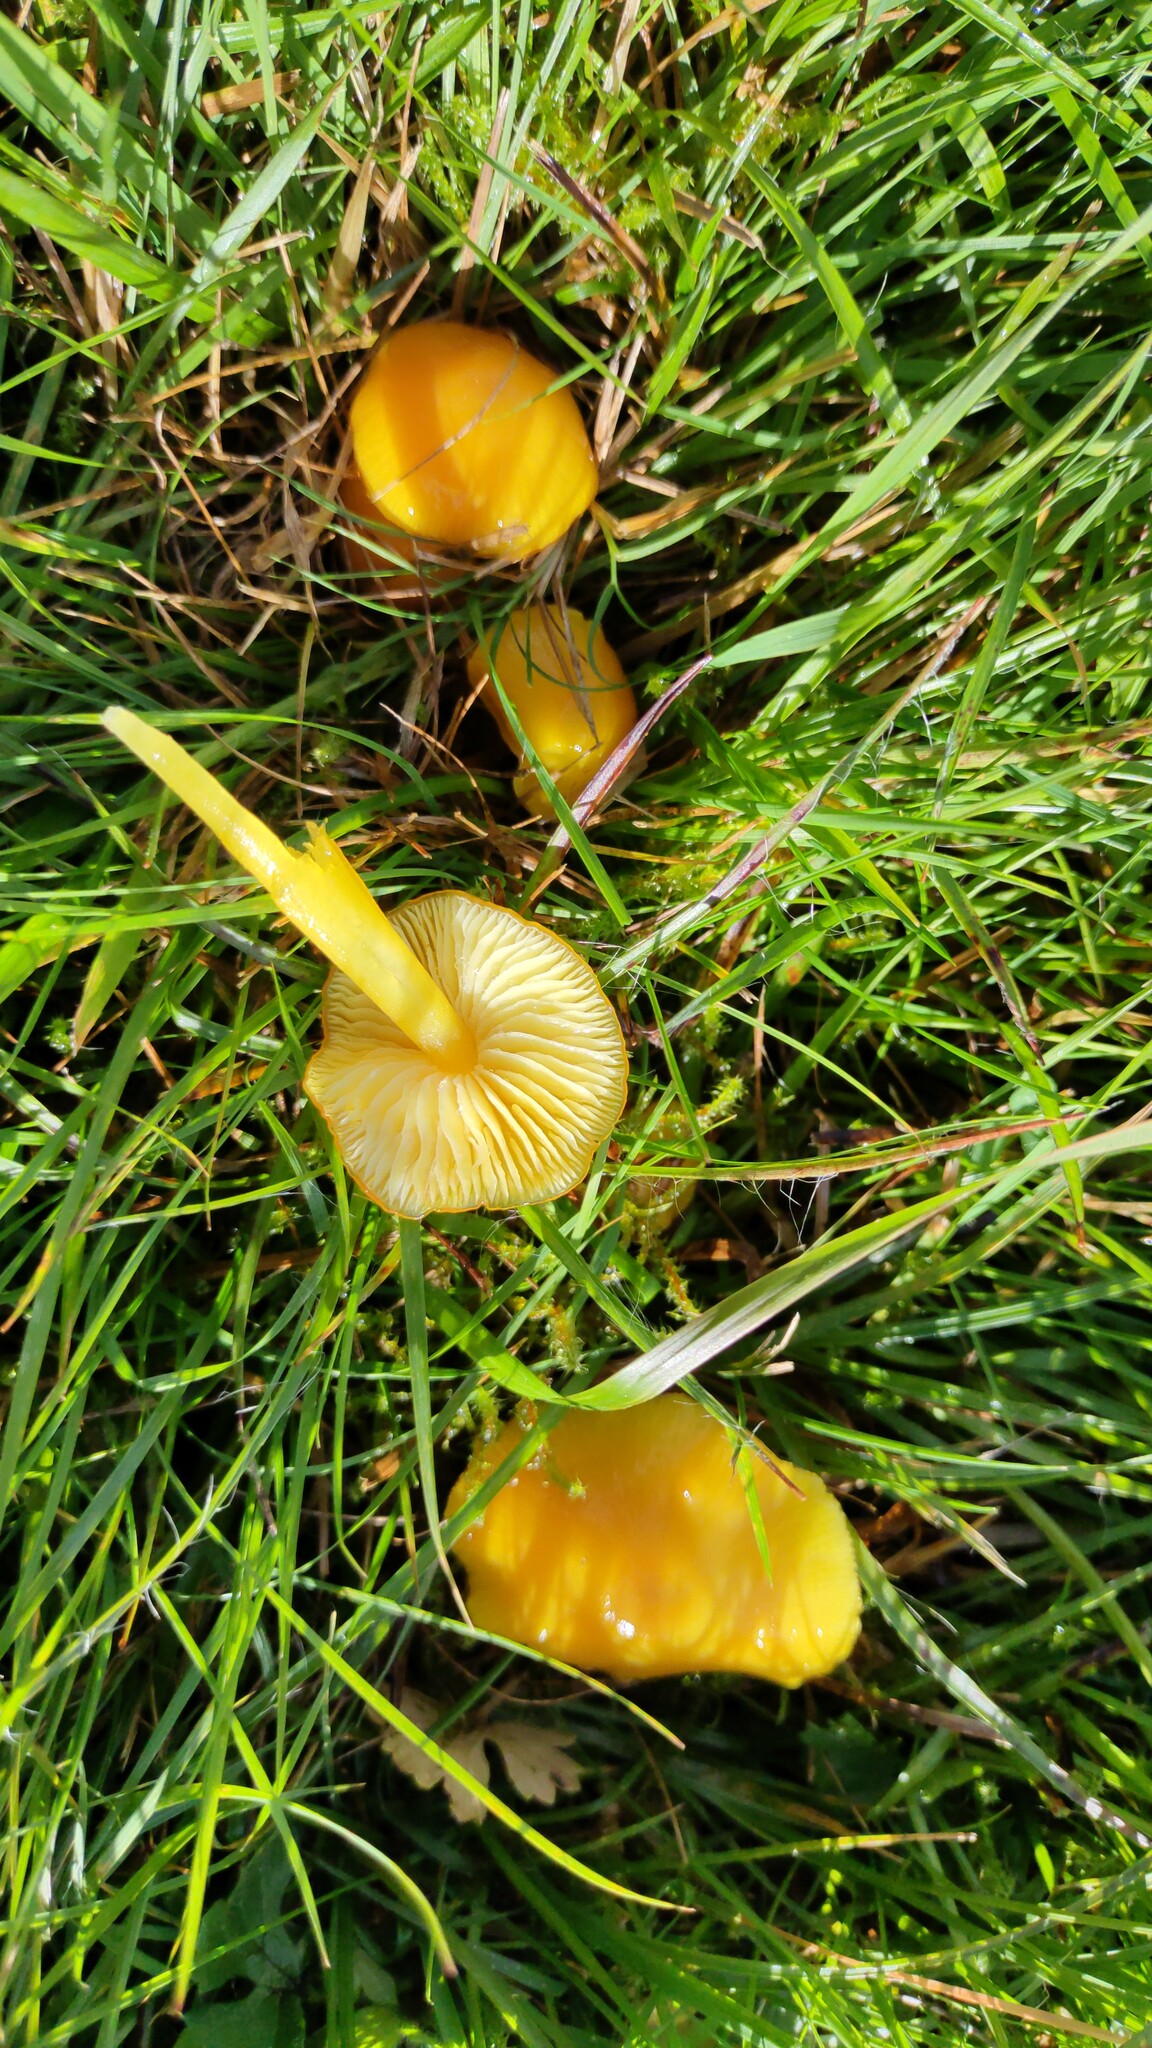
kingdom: Fungi
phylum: Basidiomycota
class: Agaricomycetes
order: Agaricales
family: Hygrophoraceae
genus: Hygrocybe
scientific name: Hygrocybe chlorophana
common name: Golden waxcap
